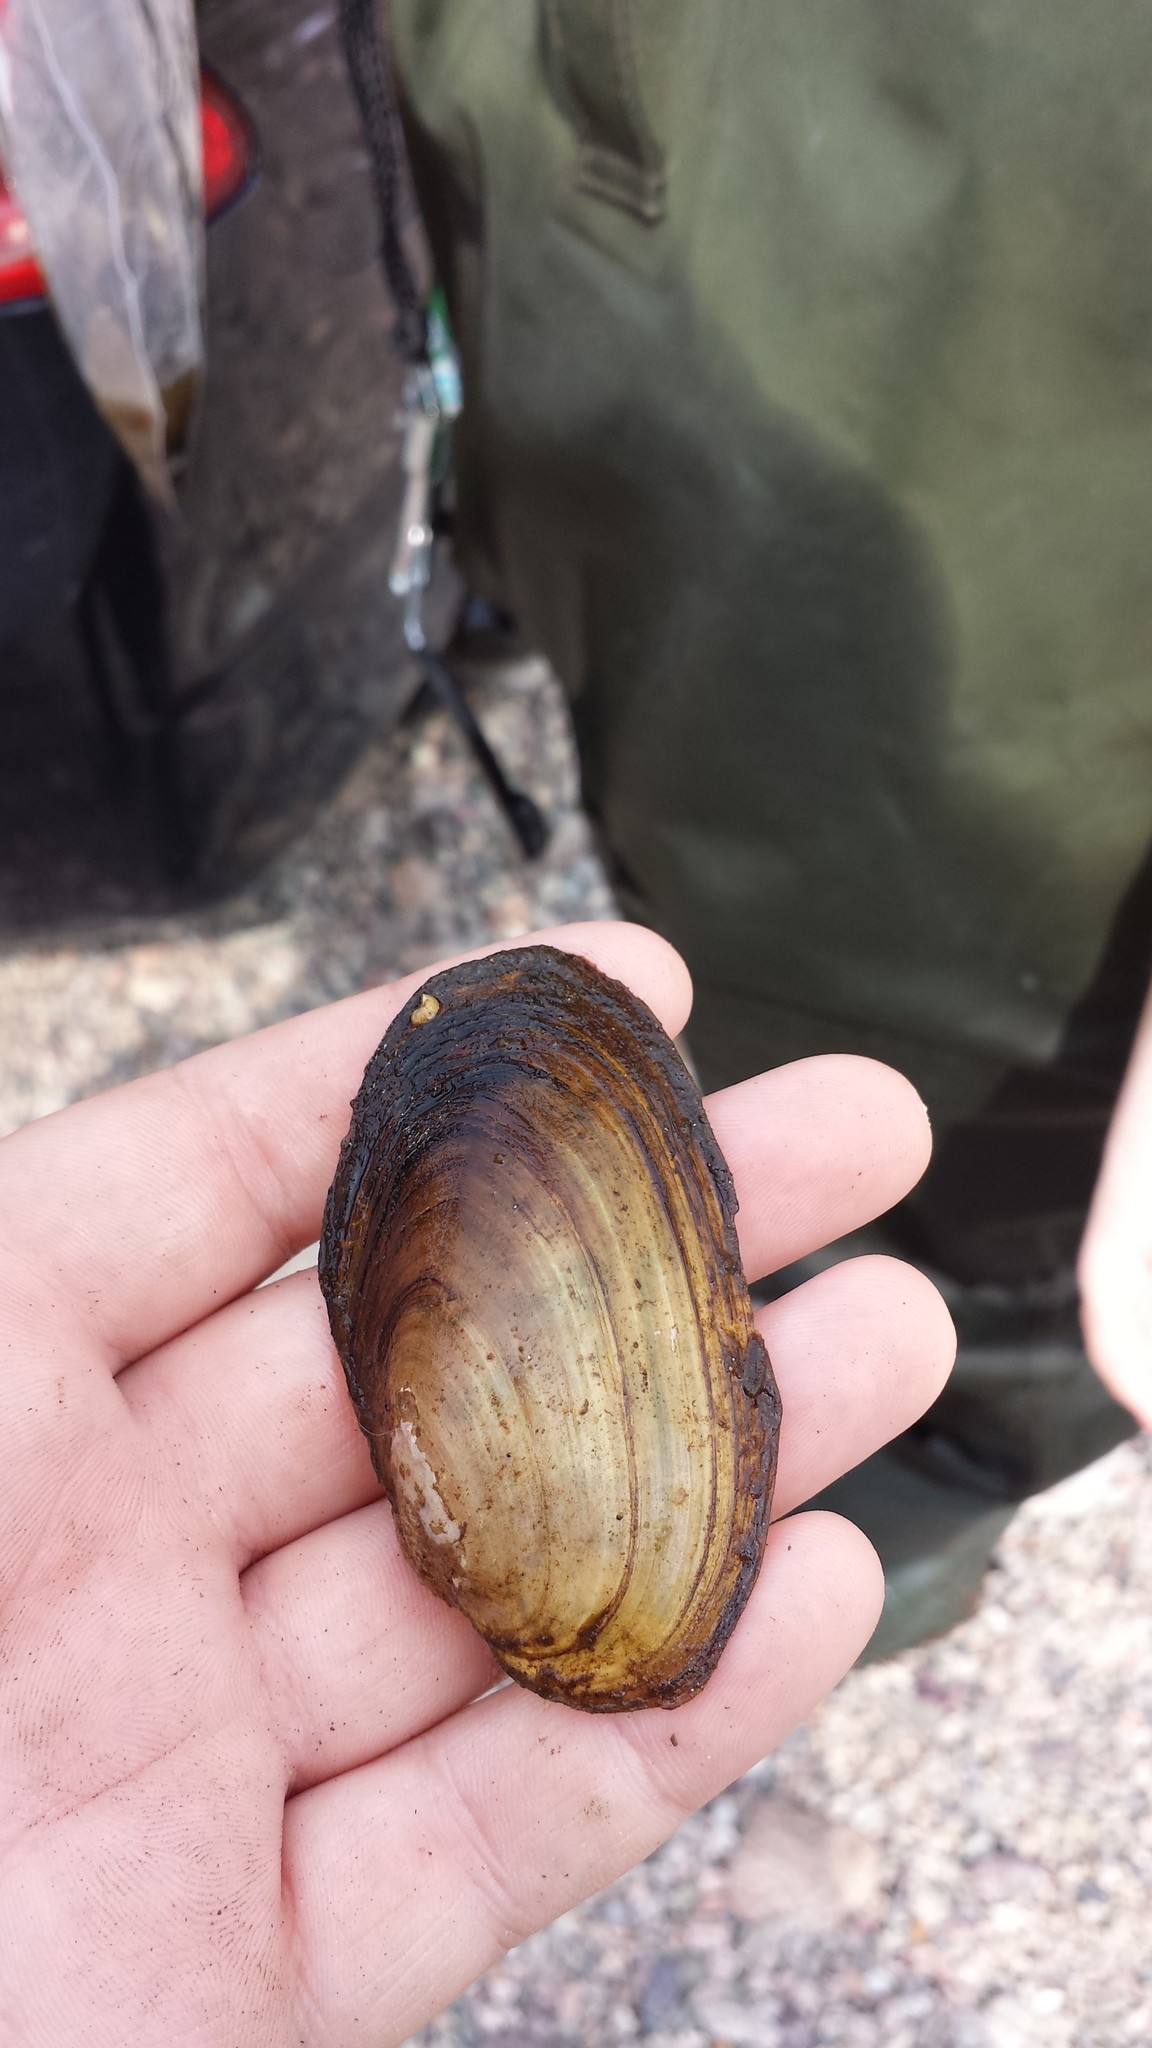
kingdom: Animalia
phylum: Mollusca
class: Bivalvia
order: Unionida
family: Unionidae
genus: Pyganodon
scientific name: Pyganodon cataracta
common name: Eastern floater
